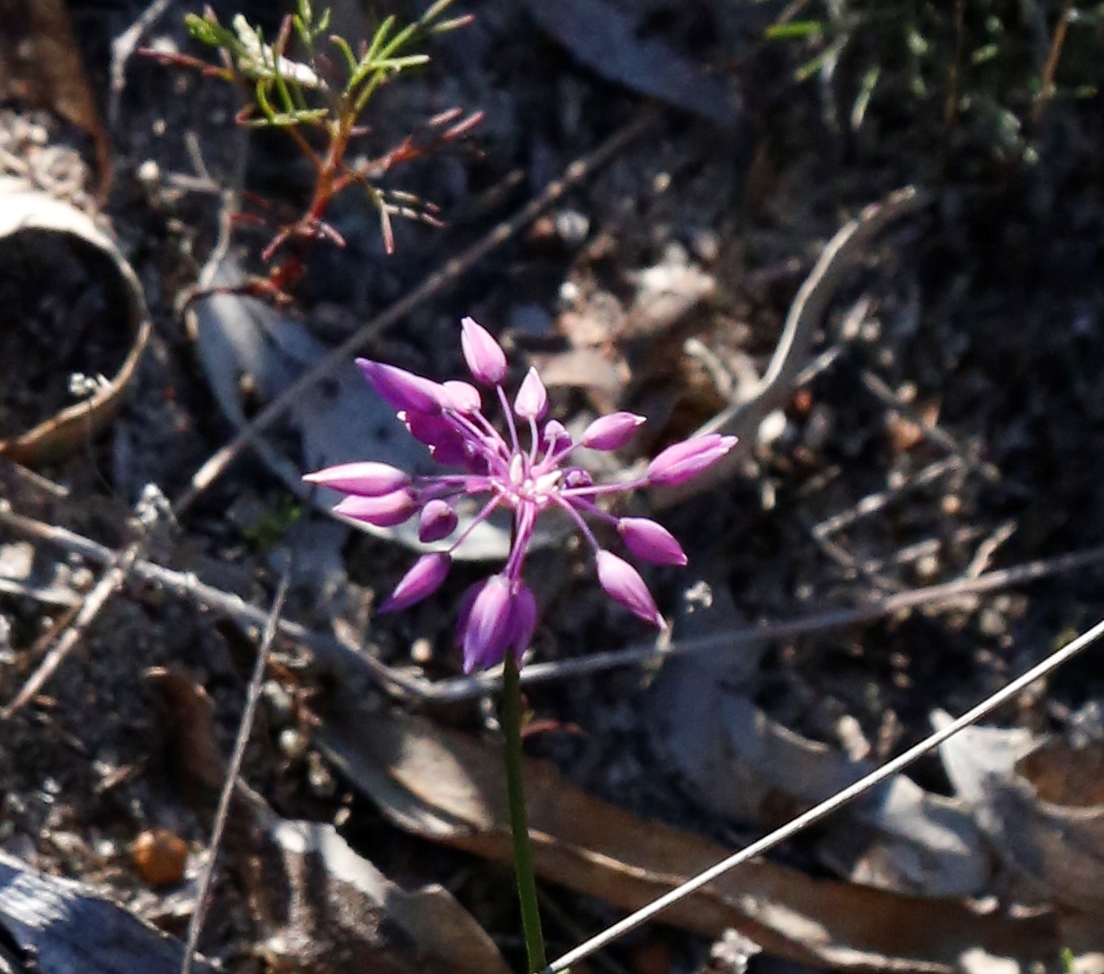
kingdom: Plantae
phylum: Tracheophyta
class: Liliopsida
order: Asparagales
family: Asparagaceae
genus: Sowerbaea
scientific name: Sowerbaea laxiflora
